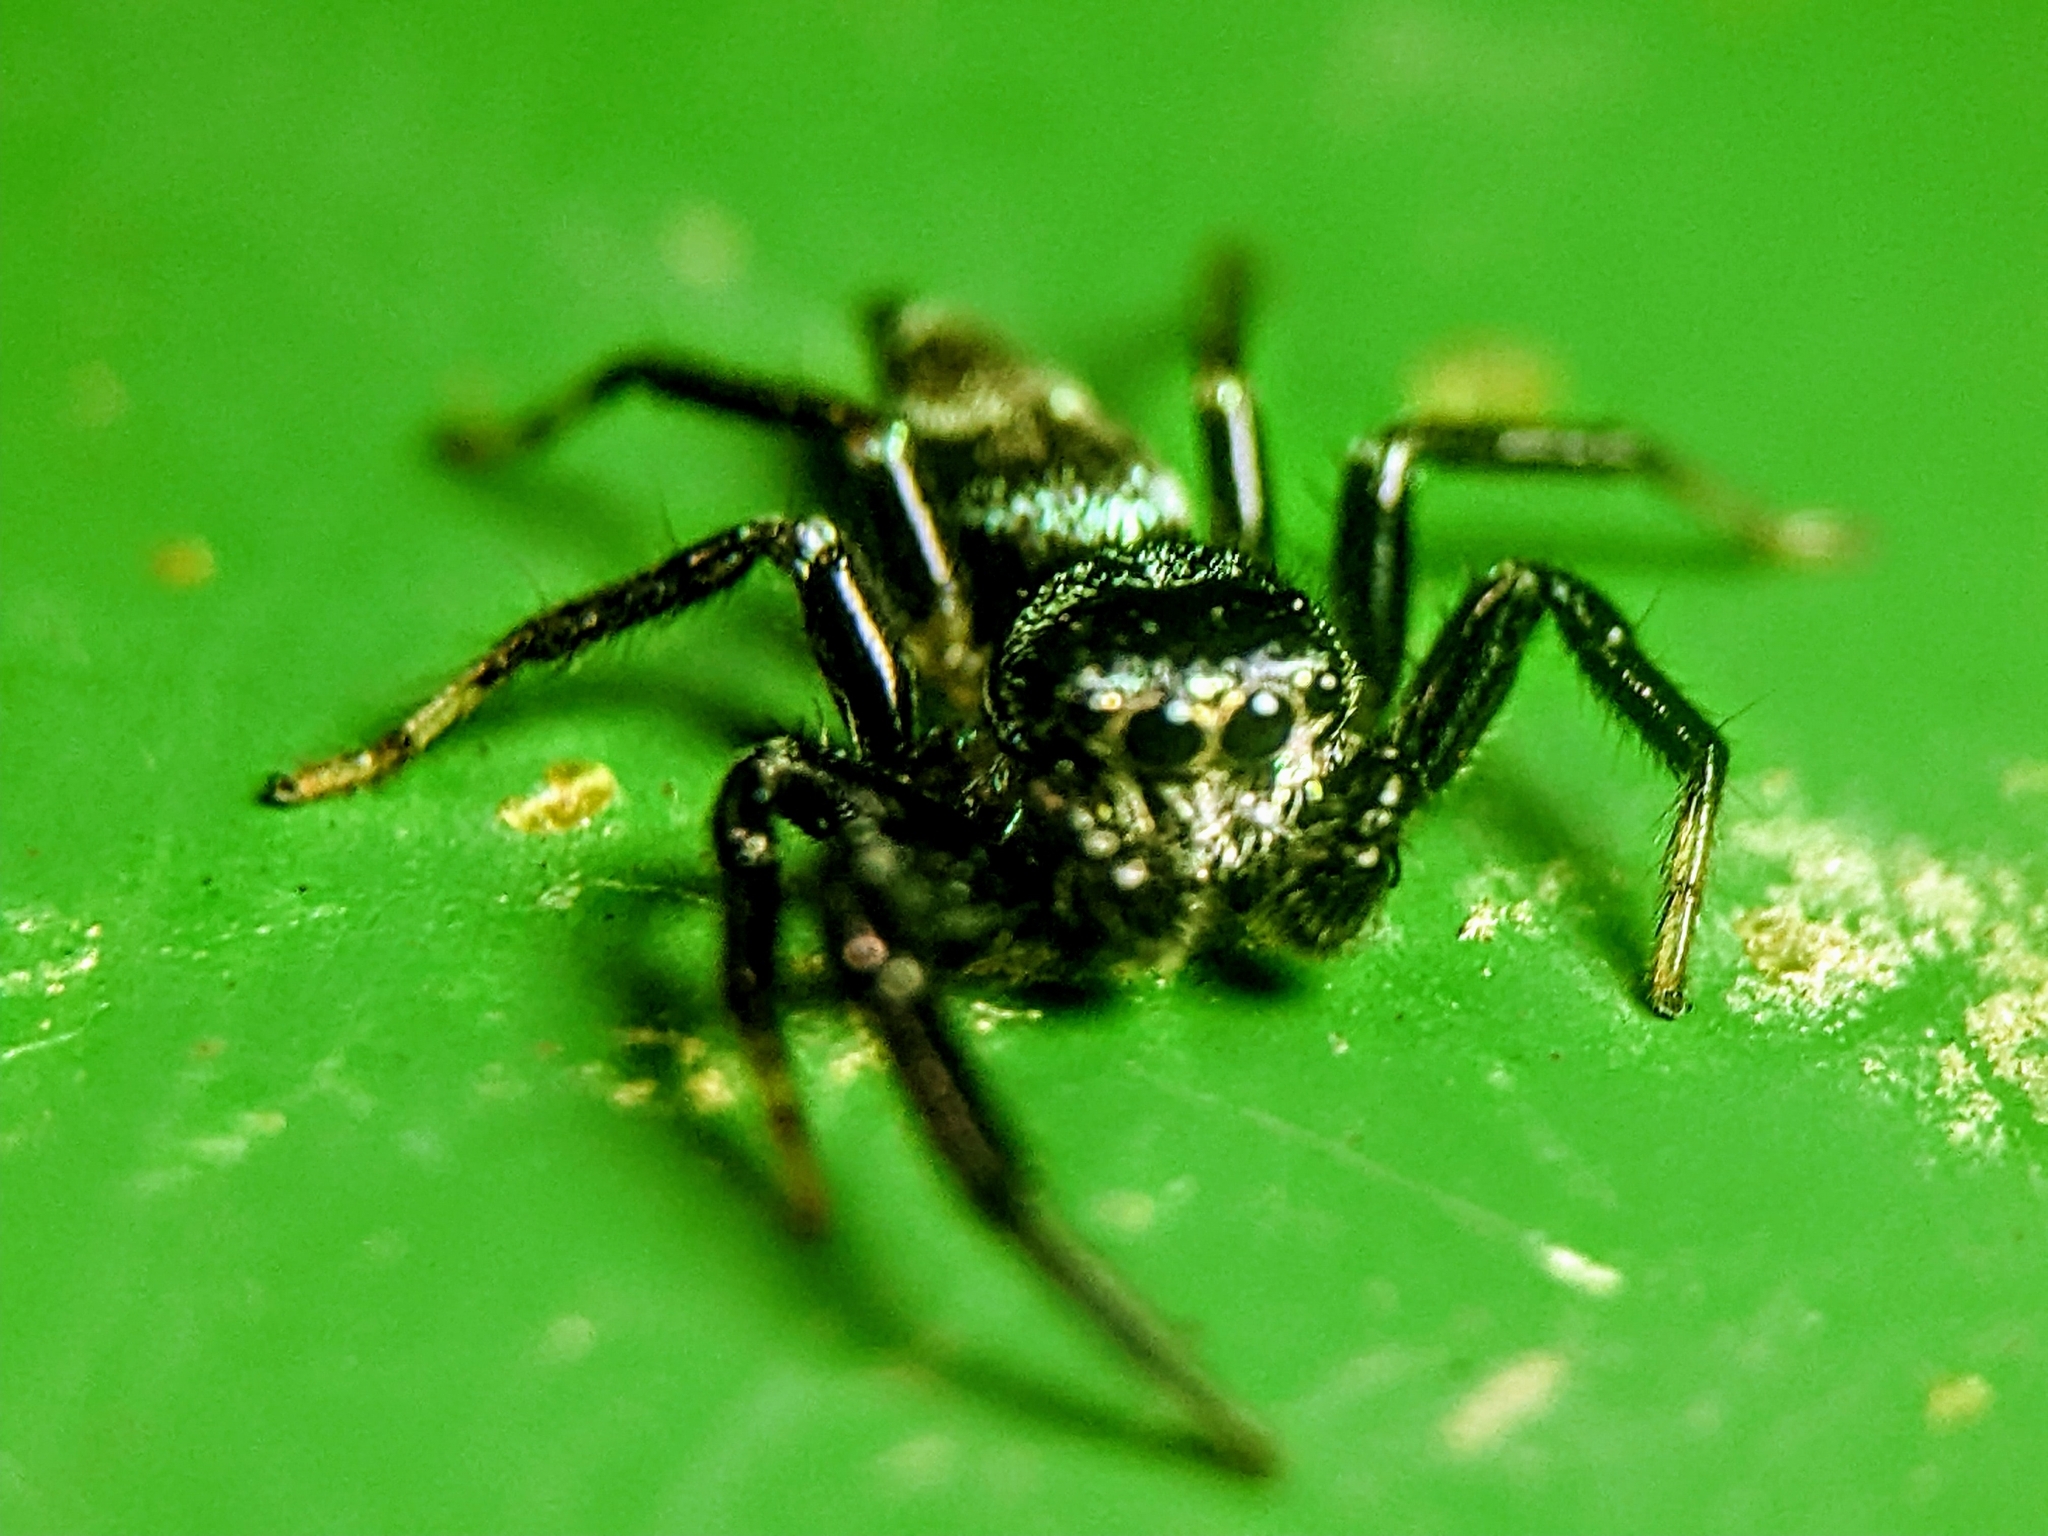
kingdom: Animalia
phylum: Arthropoda
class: Arachnida
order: Araneae
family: Salticidae
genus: Thiania
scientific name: Thiania bhamoensis
